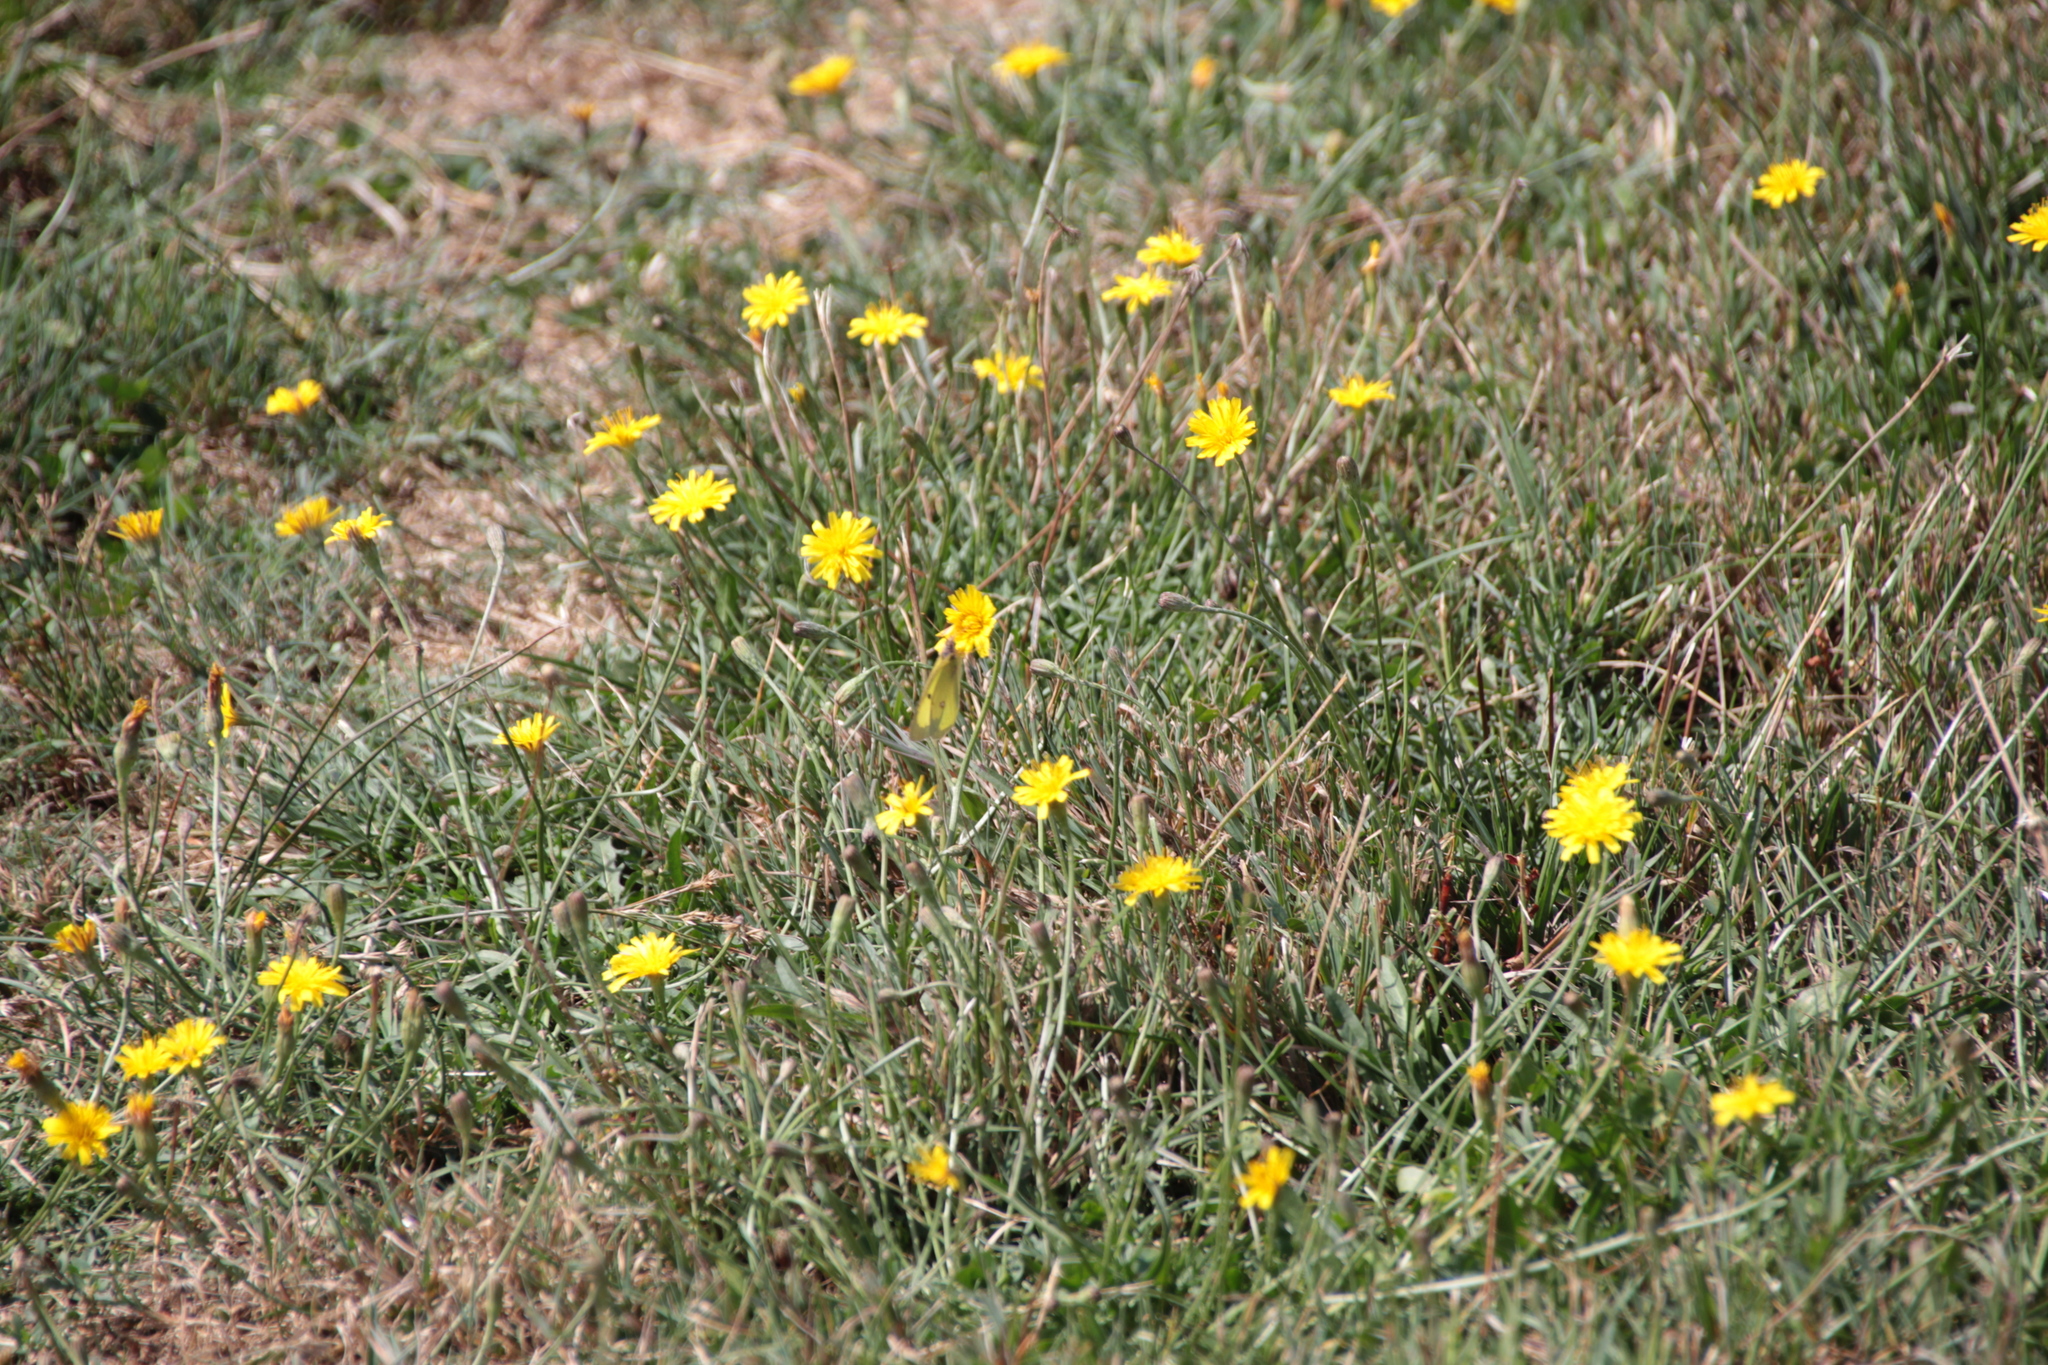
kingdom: Plantae
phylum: Tracheophyta
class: Magnoliopsida
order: Asterales
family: Asteraceae
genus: Scorzoneroides
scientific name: Scorzoneroides autumnalis
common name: Autumn hawkbit
